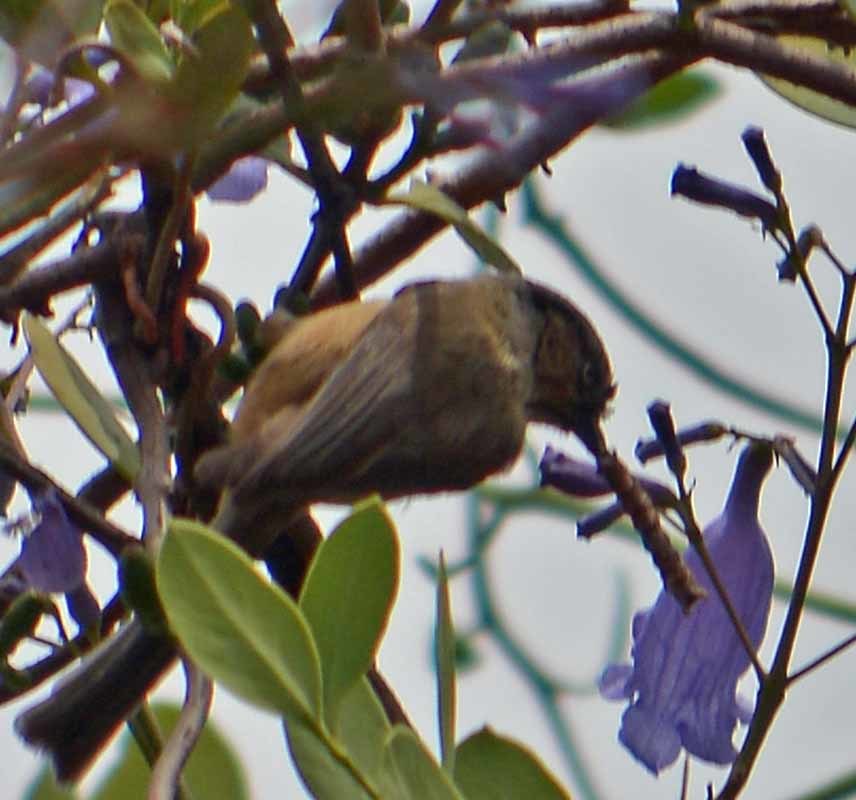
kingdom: Animalia
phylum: Chordata
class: Aves
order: Passeriformes
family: Aegithalidae
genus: Psaltriparus
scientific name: Psaltriparus minimus
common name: American bushtit
